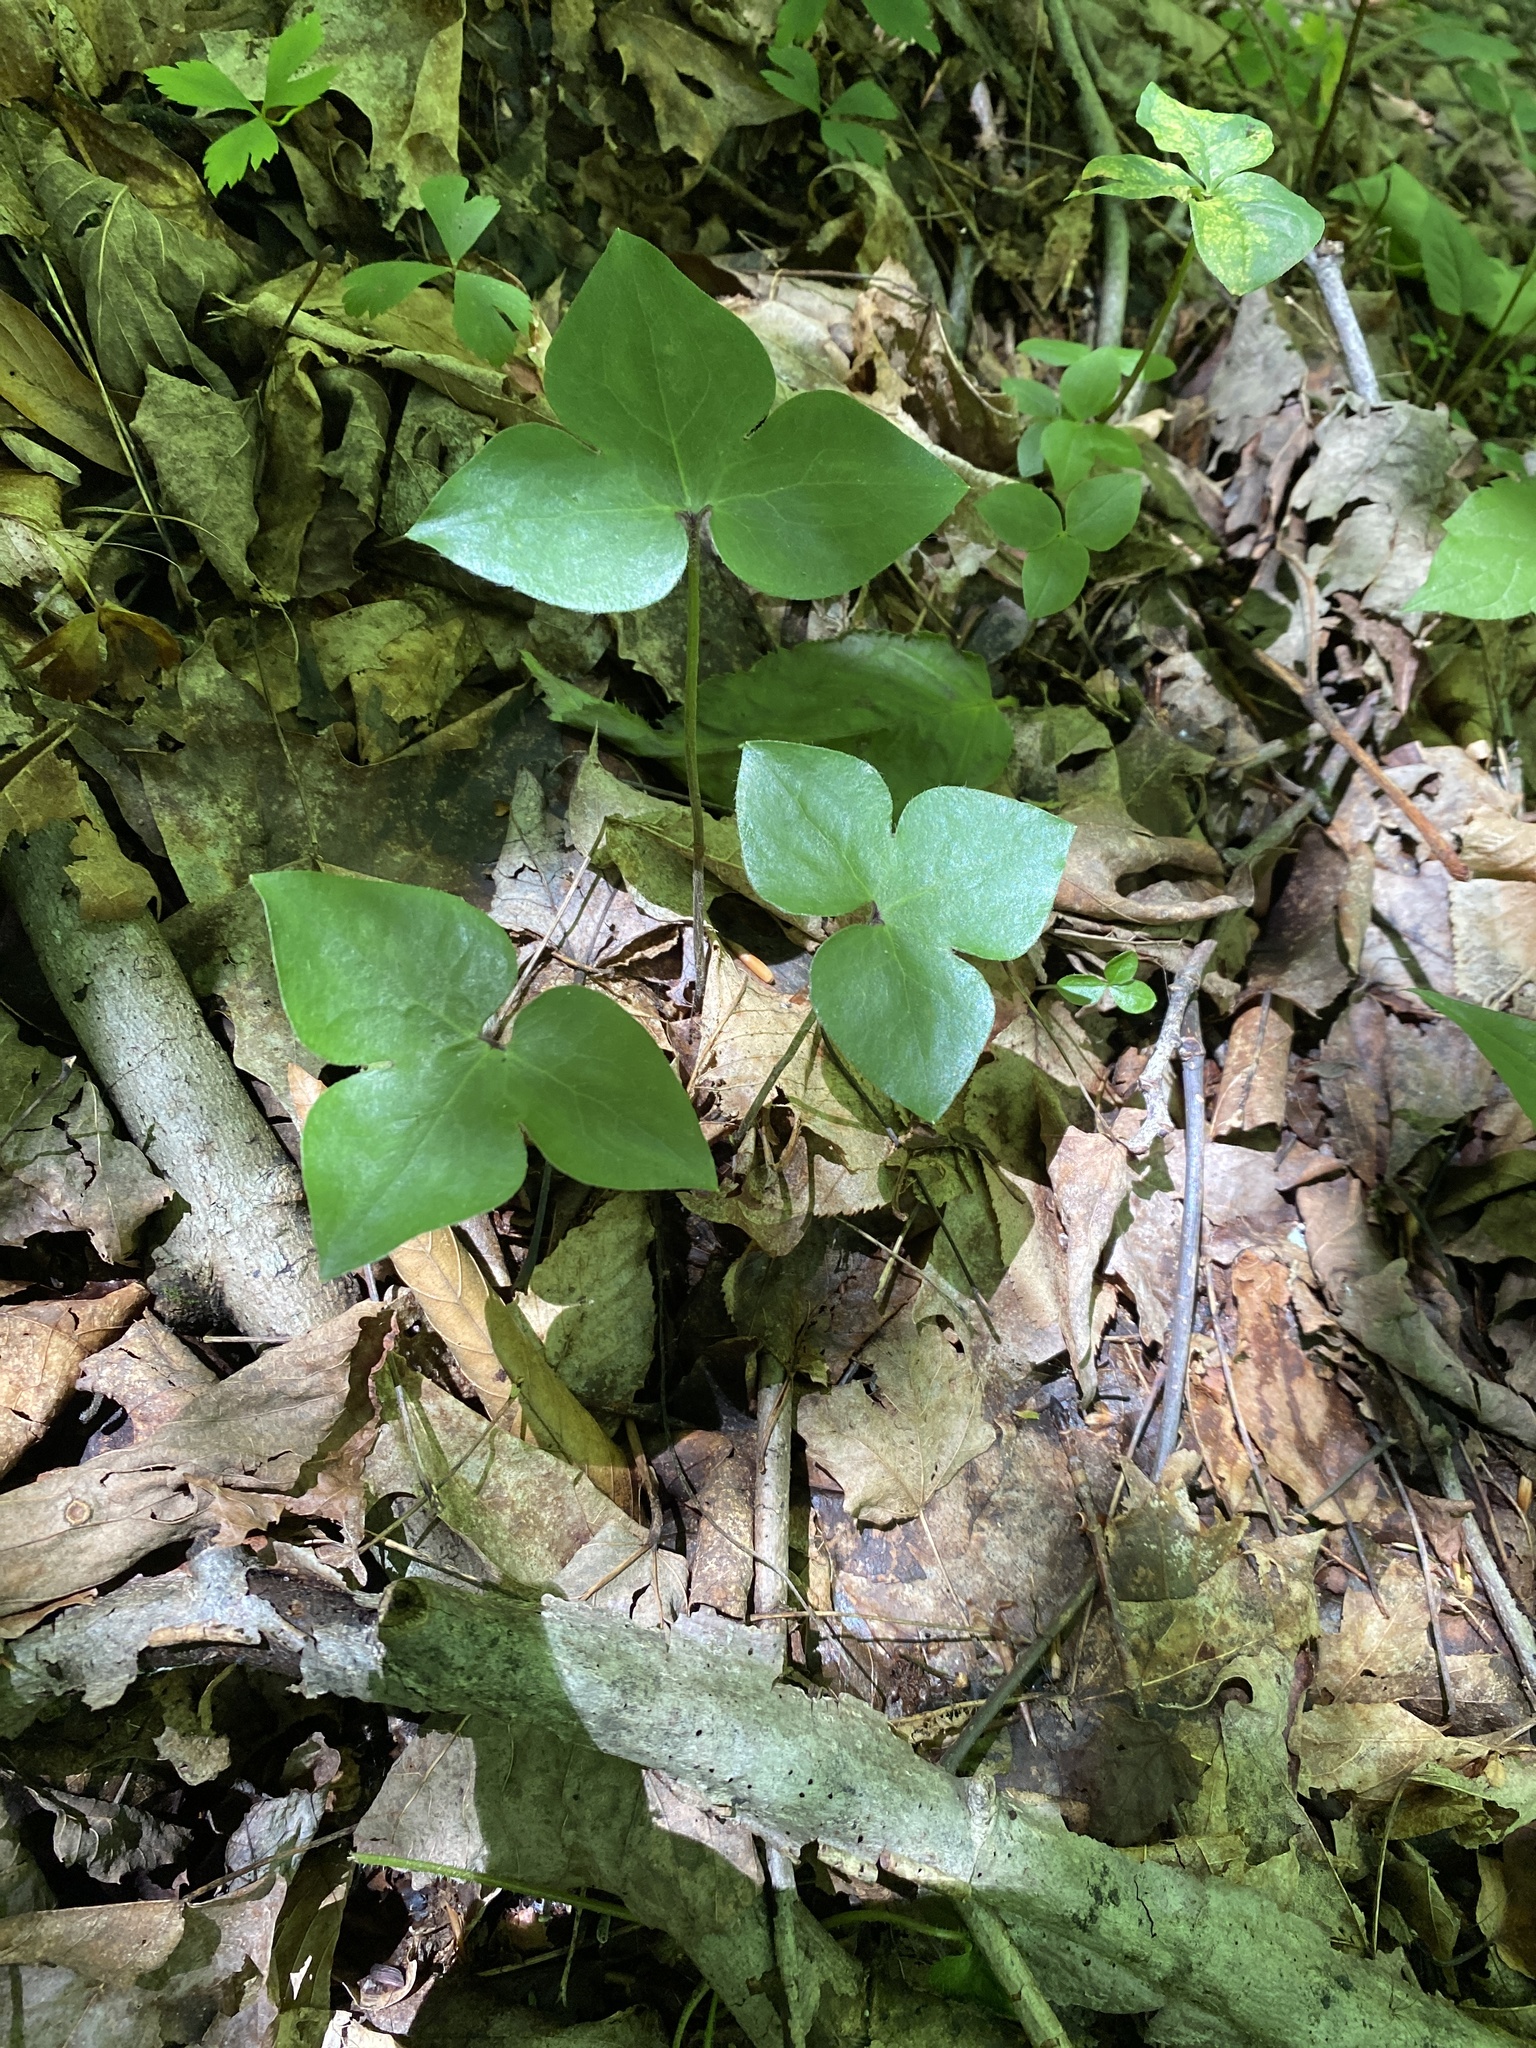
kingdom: Plantae
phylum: Tracheophyta
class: Magnoliopsida
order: Ranunculales
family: Ranunculaceae
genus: Hepatica
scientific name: Hepatica acutiloba
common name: Sharp-lobed hepatica
